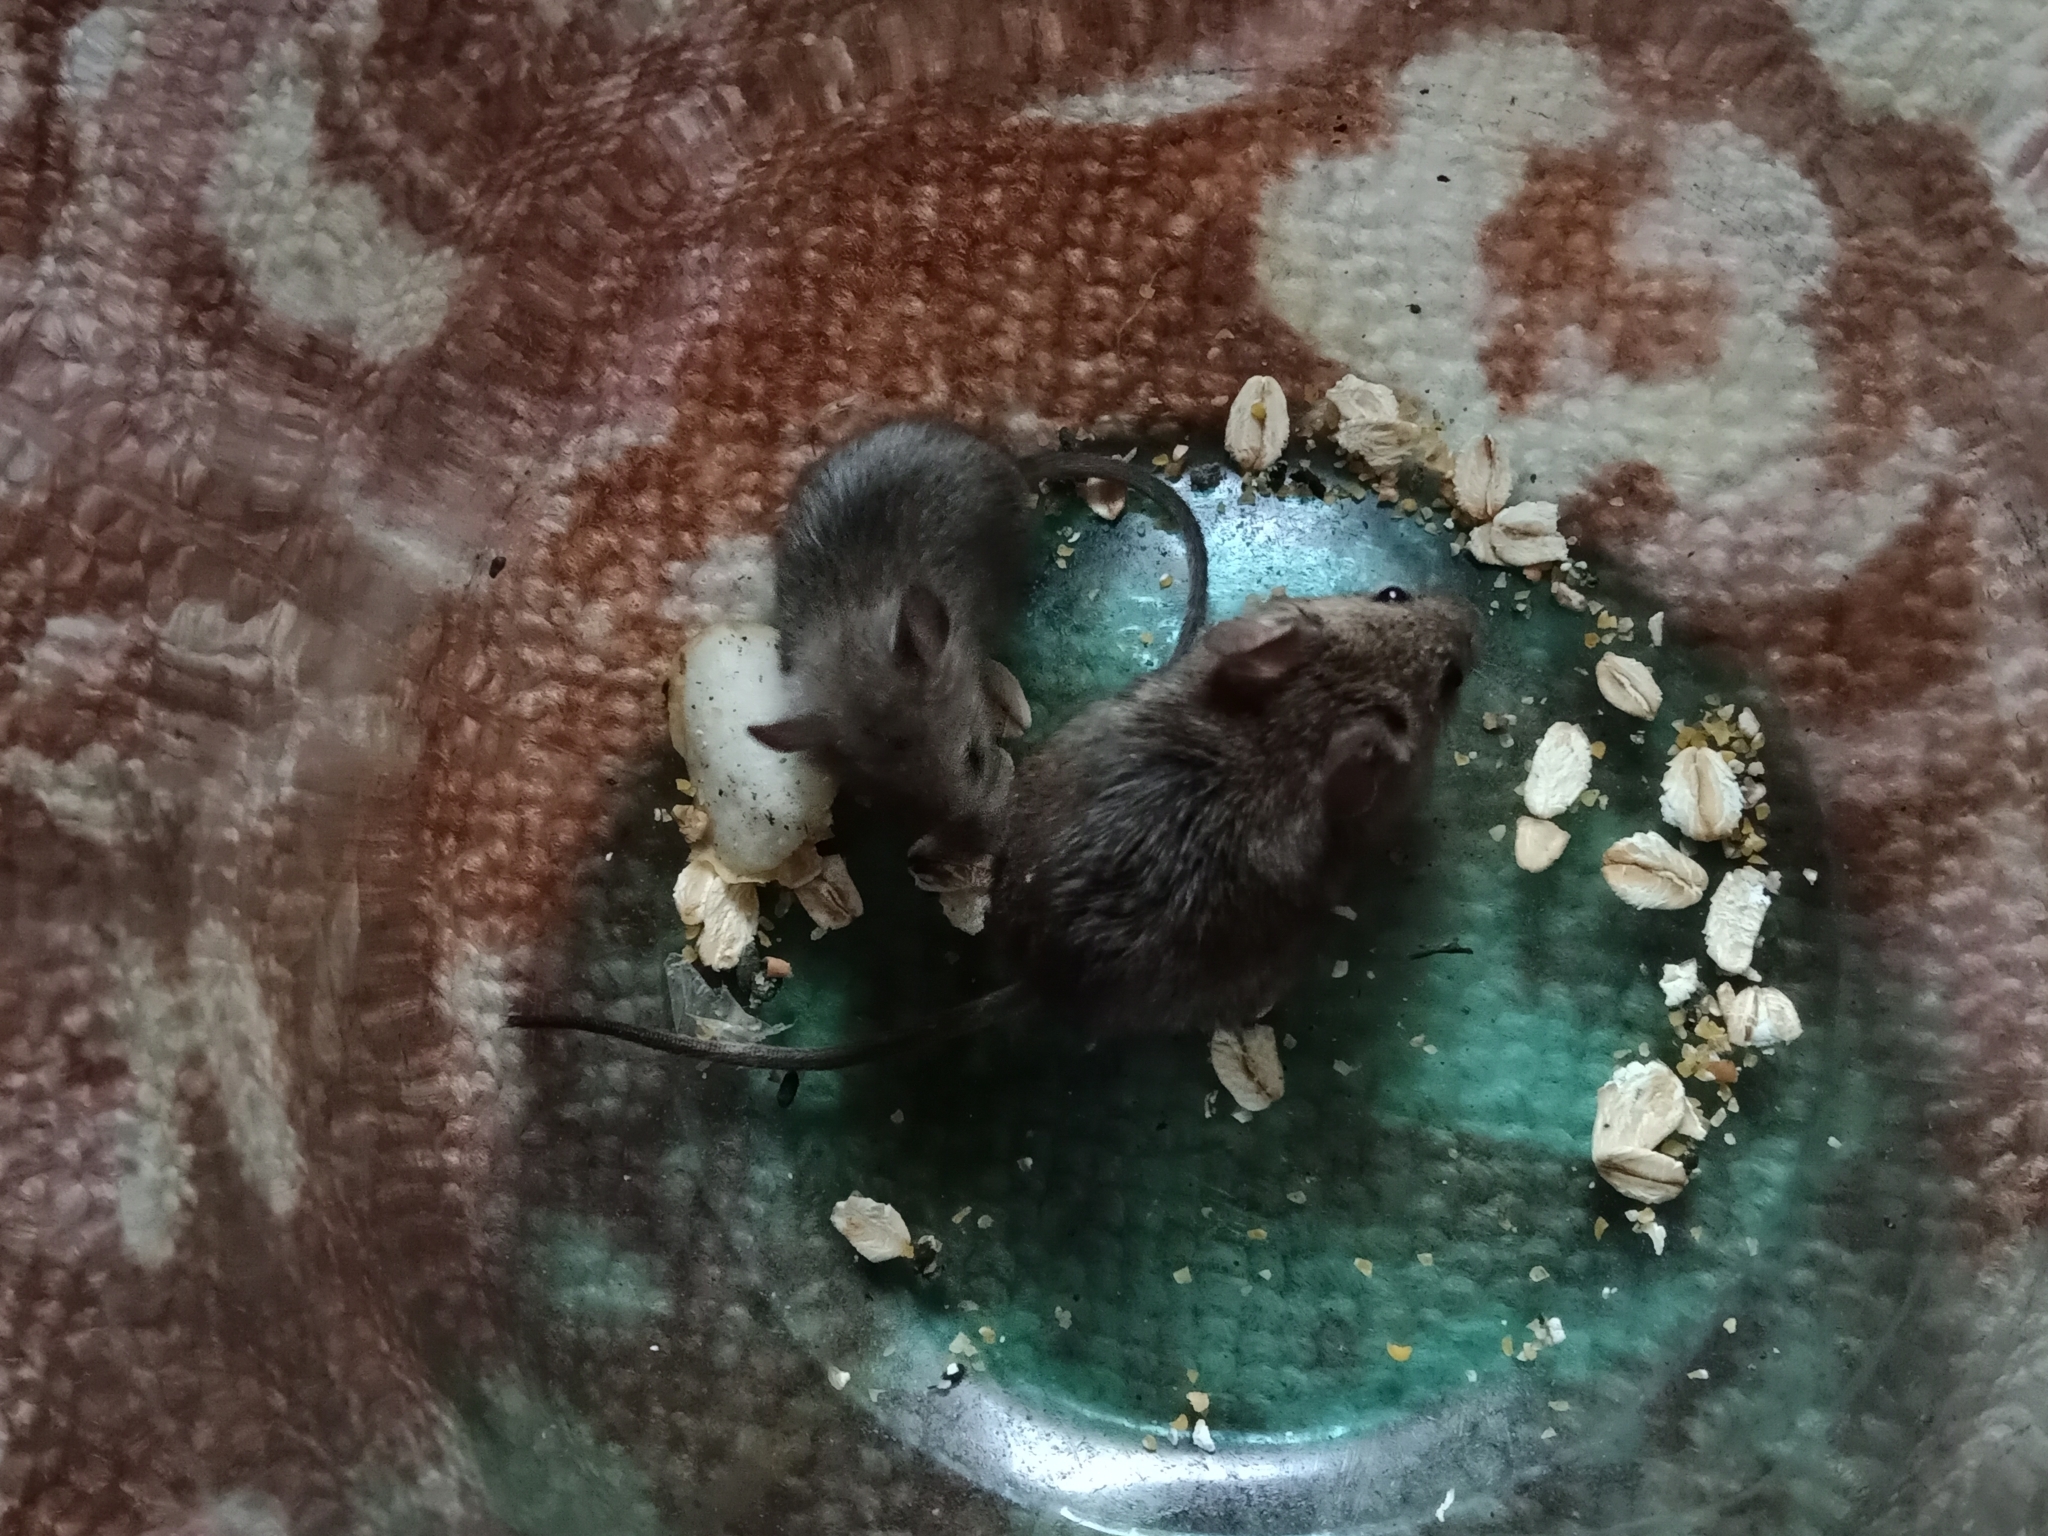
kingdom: Animalia
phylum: Chordata
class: Mammalia
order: Rodentia
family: Muridae
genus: Mus
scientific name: Mus musculus
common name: House mouse
